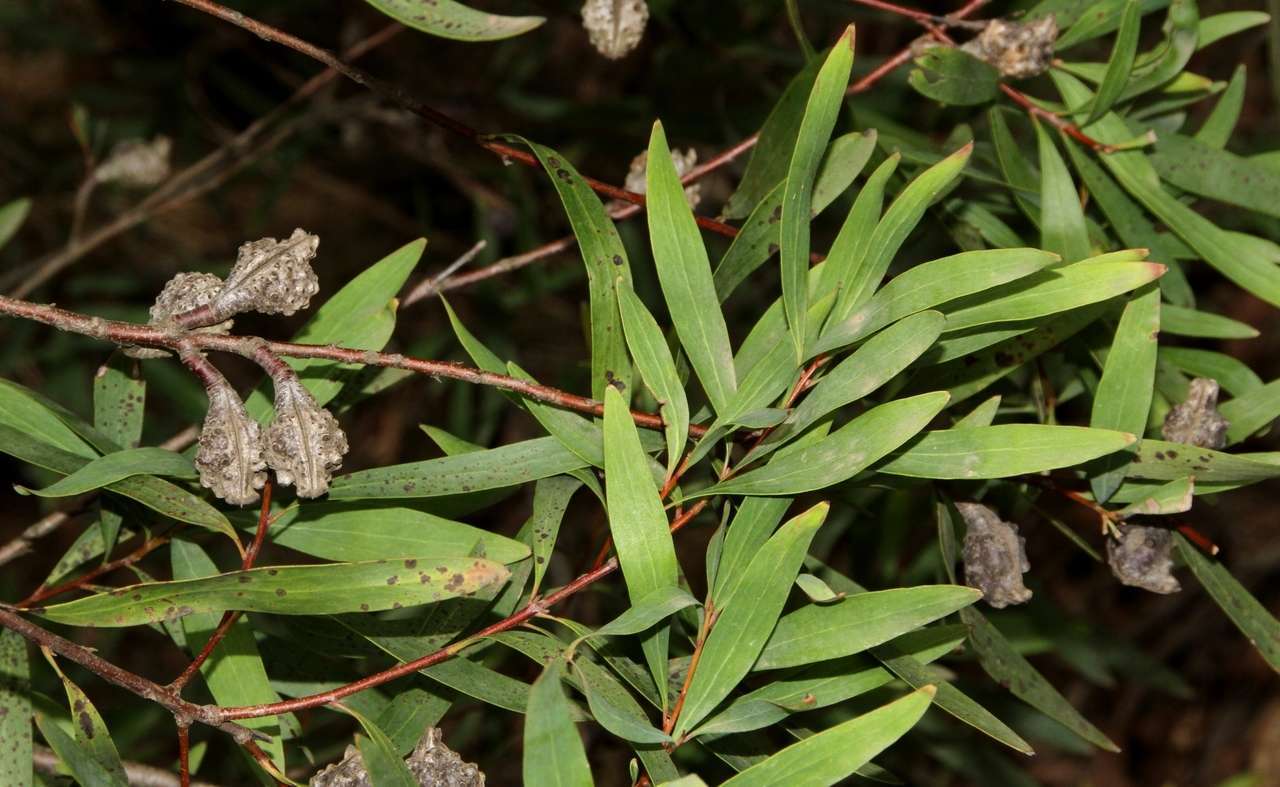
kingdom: Plantae
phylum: Tracheophyta
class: Magnoliopsida
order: Proteales
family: Proteaceae
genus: Hakea
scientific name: Hakea salicifolia
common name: Willow hakea
